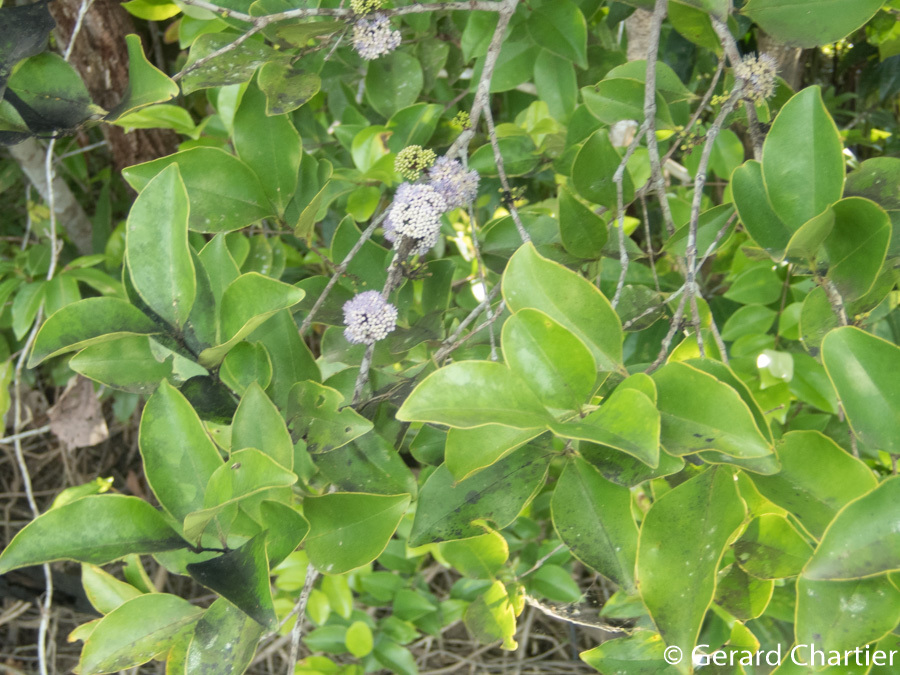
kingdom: Plantae
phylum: Tracheophyta
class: Magnoliopsida
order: Myrtales
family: Melastomataceae
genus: Memecylon
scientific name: Memecylon edule
